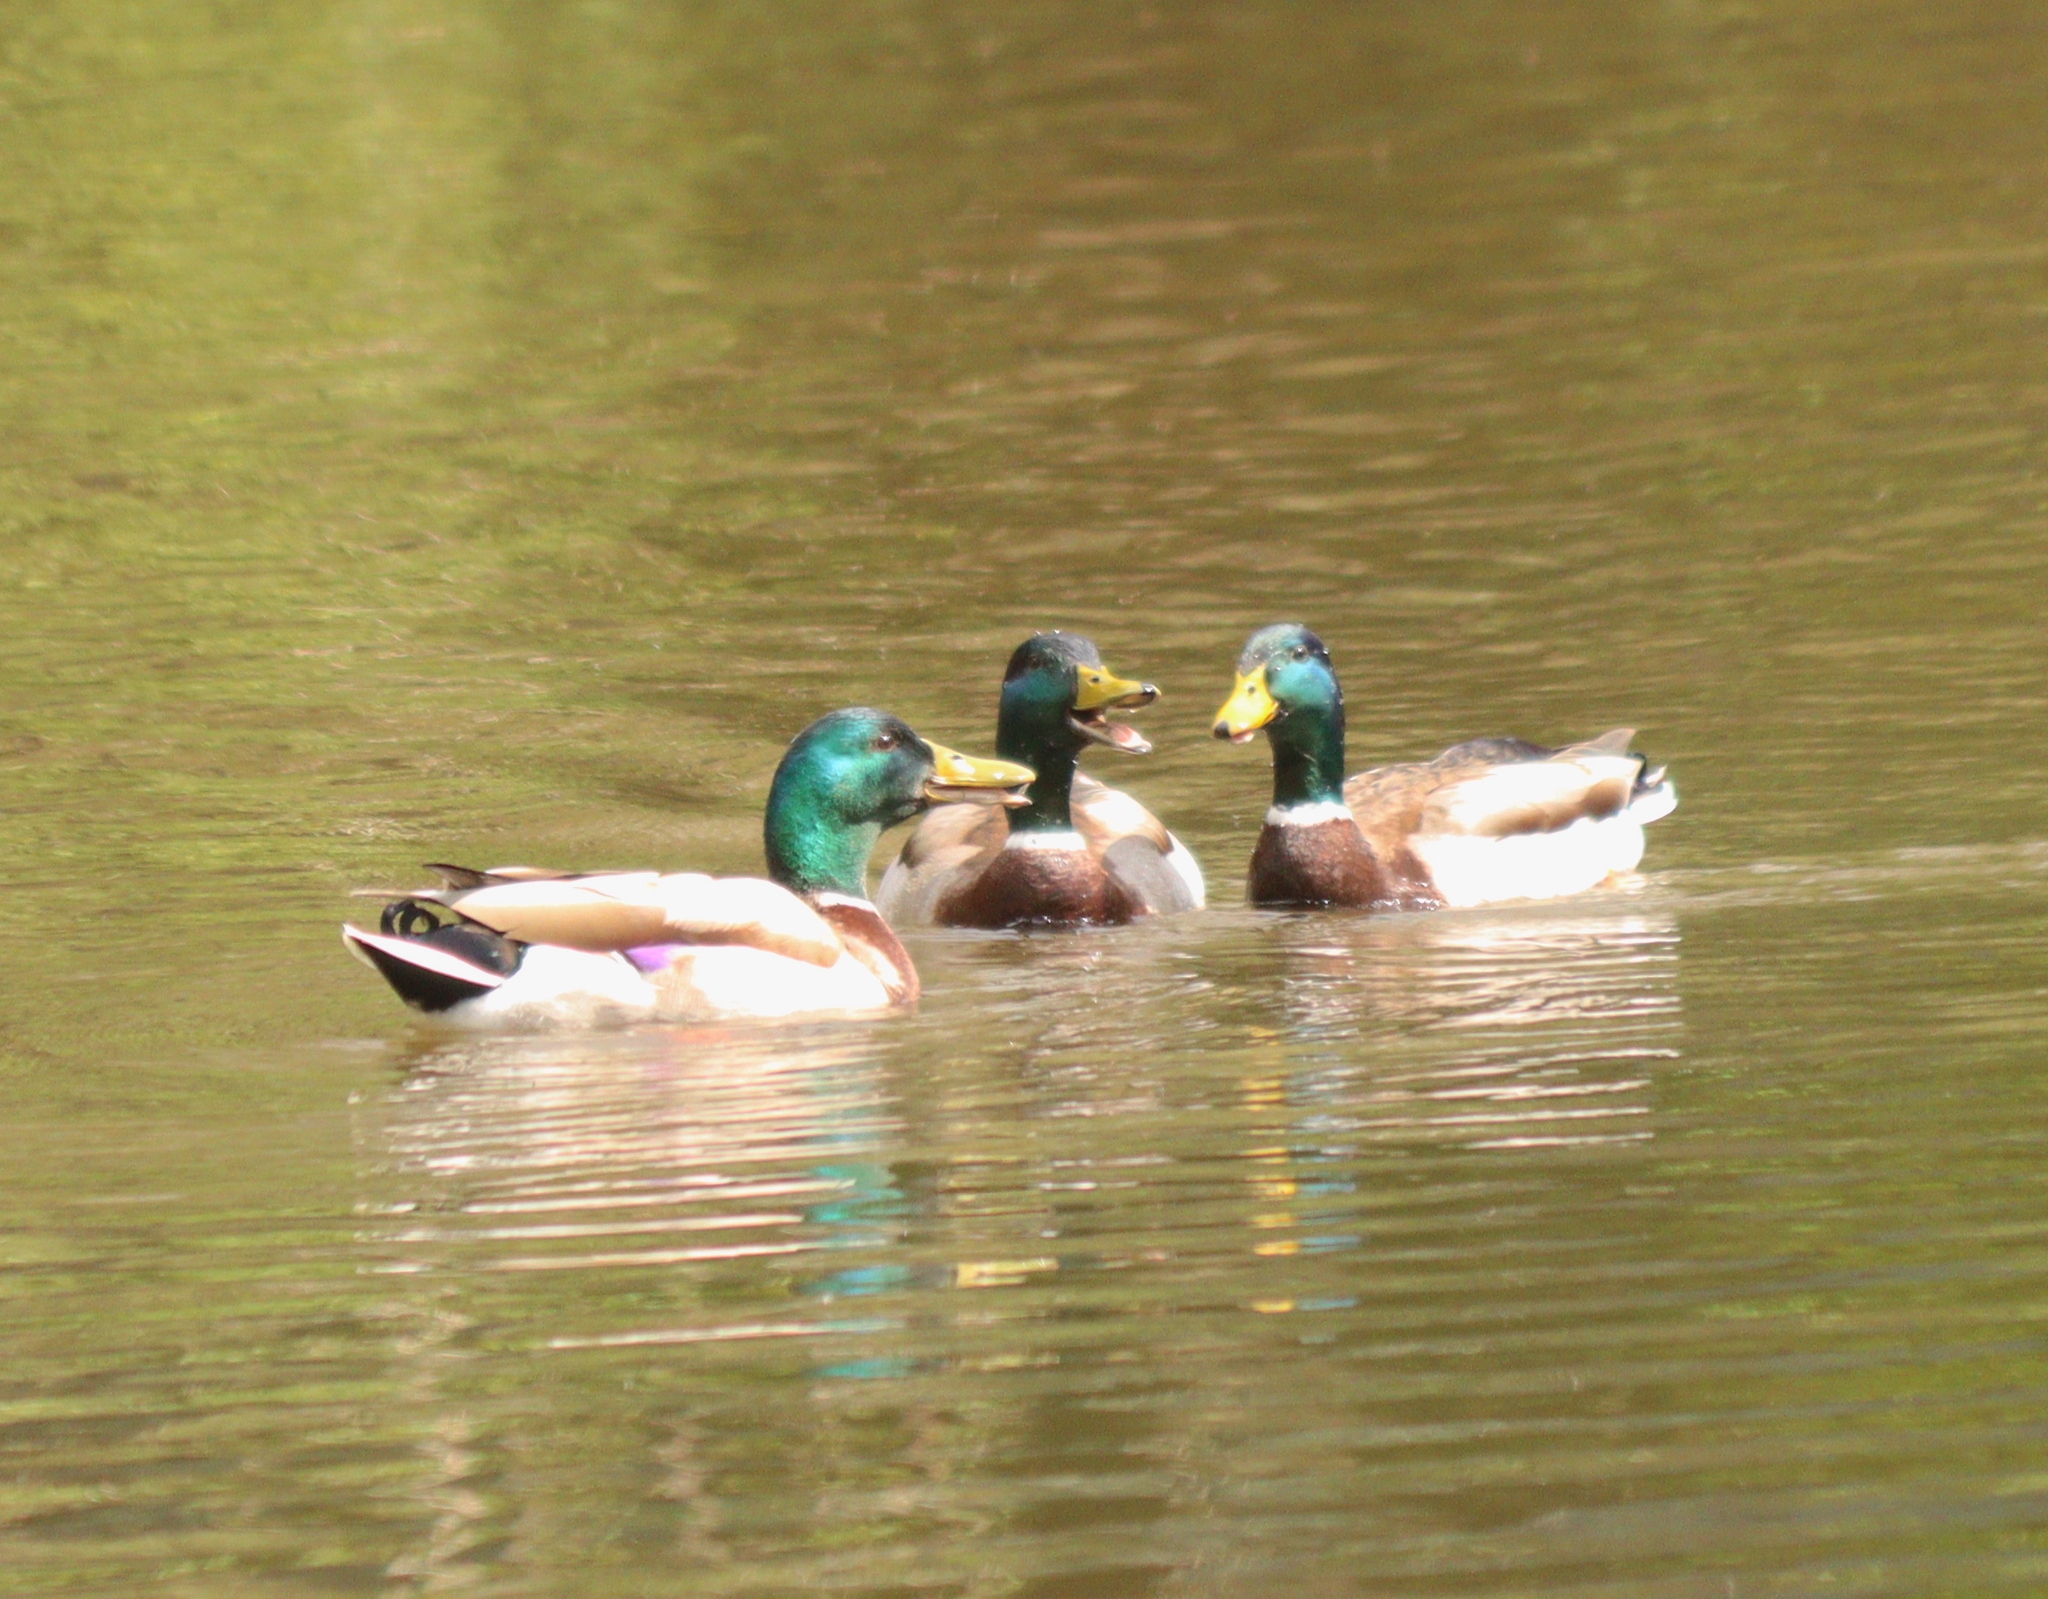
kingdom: Animalia
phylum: Chordata
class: Aves
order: Anseriformes
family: Anatidae
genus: Anas
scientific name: Anas platyrhynchos
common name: Mallard
